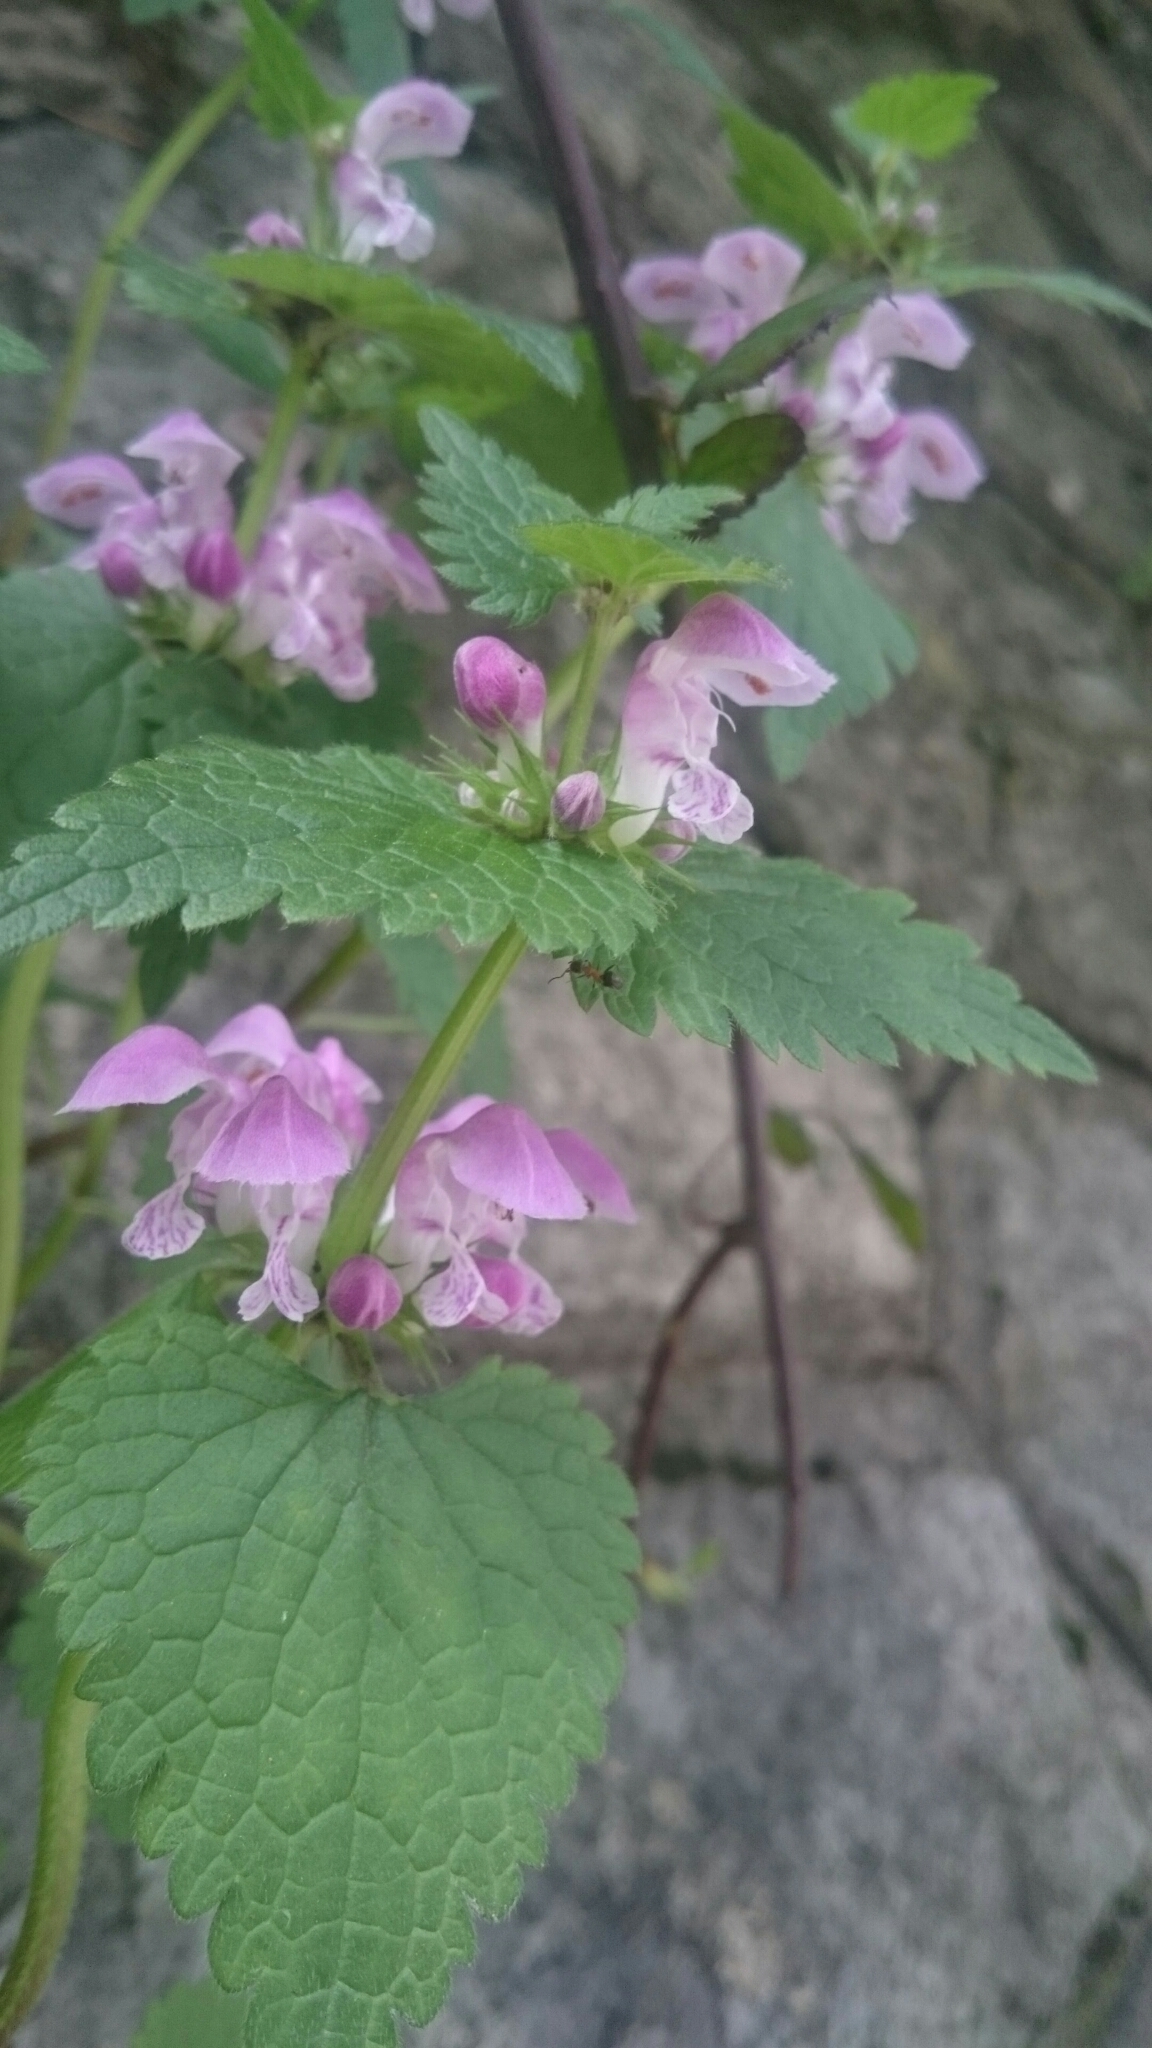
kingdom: Plantae
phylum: Tracheophyta
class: Magnoliopsida
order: Lamiales
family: Lamiaceae
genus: Lamium
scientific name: Lamium maculatum
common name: Spotted dead-nettle
